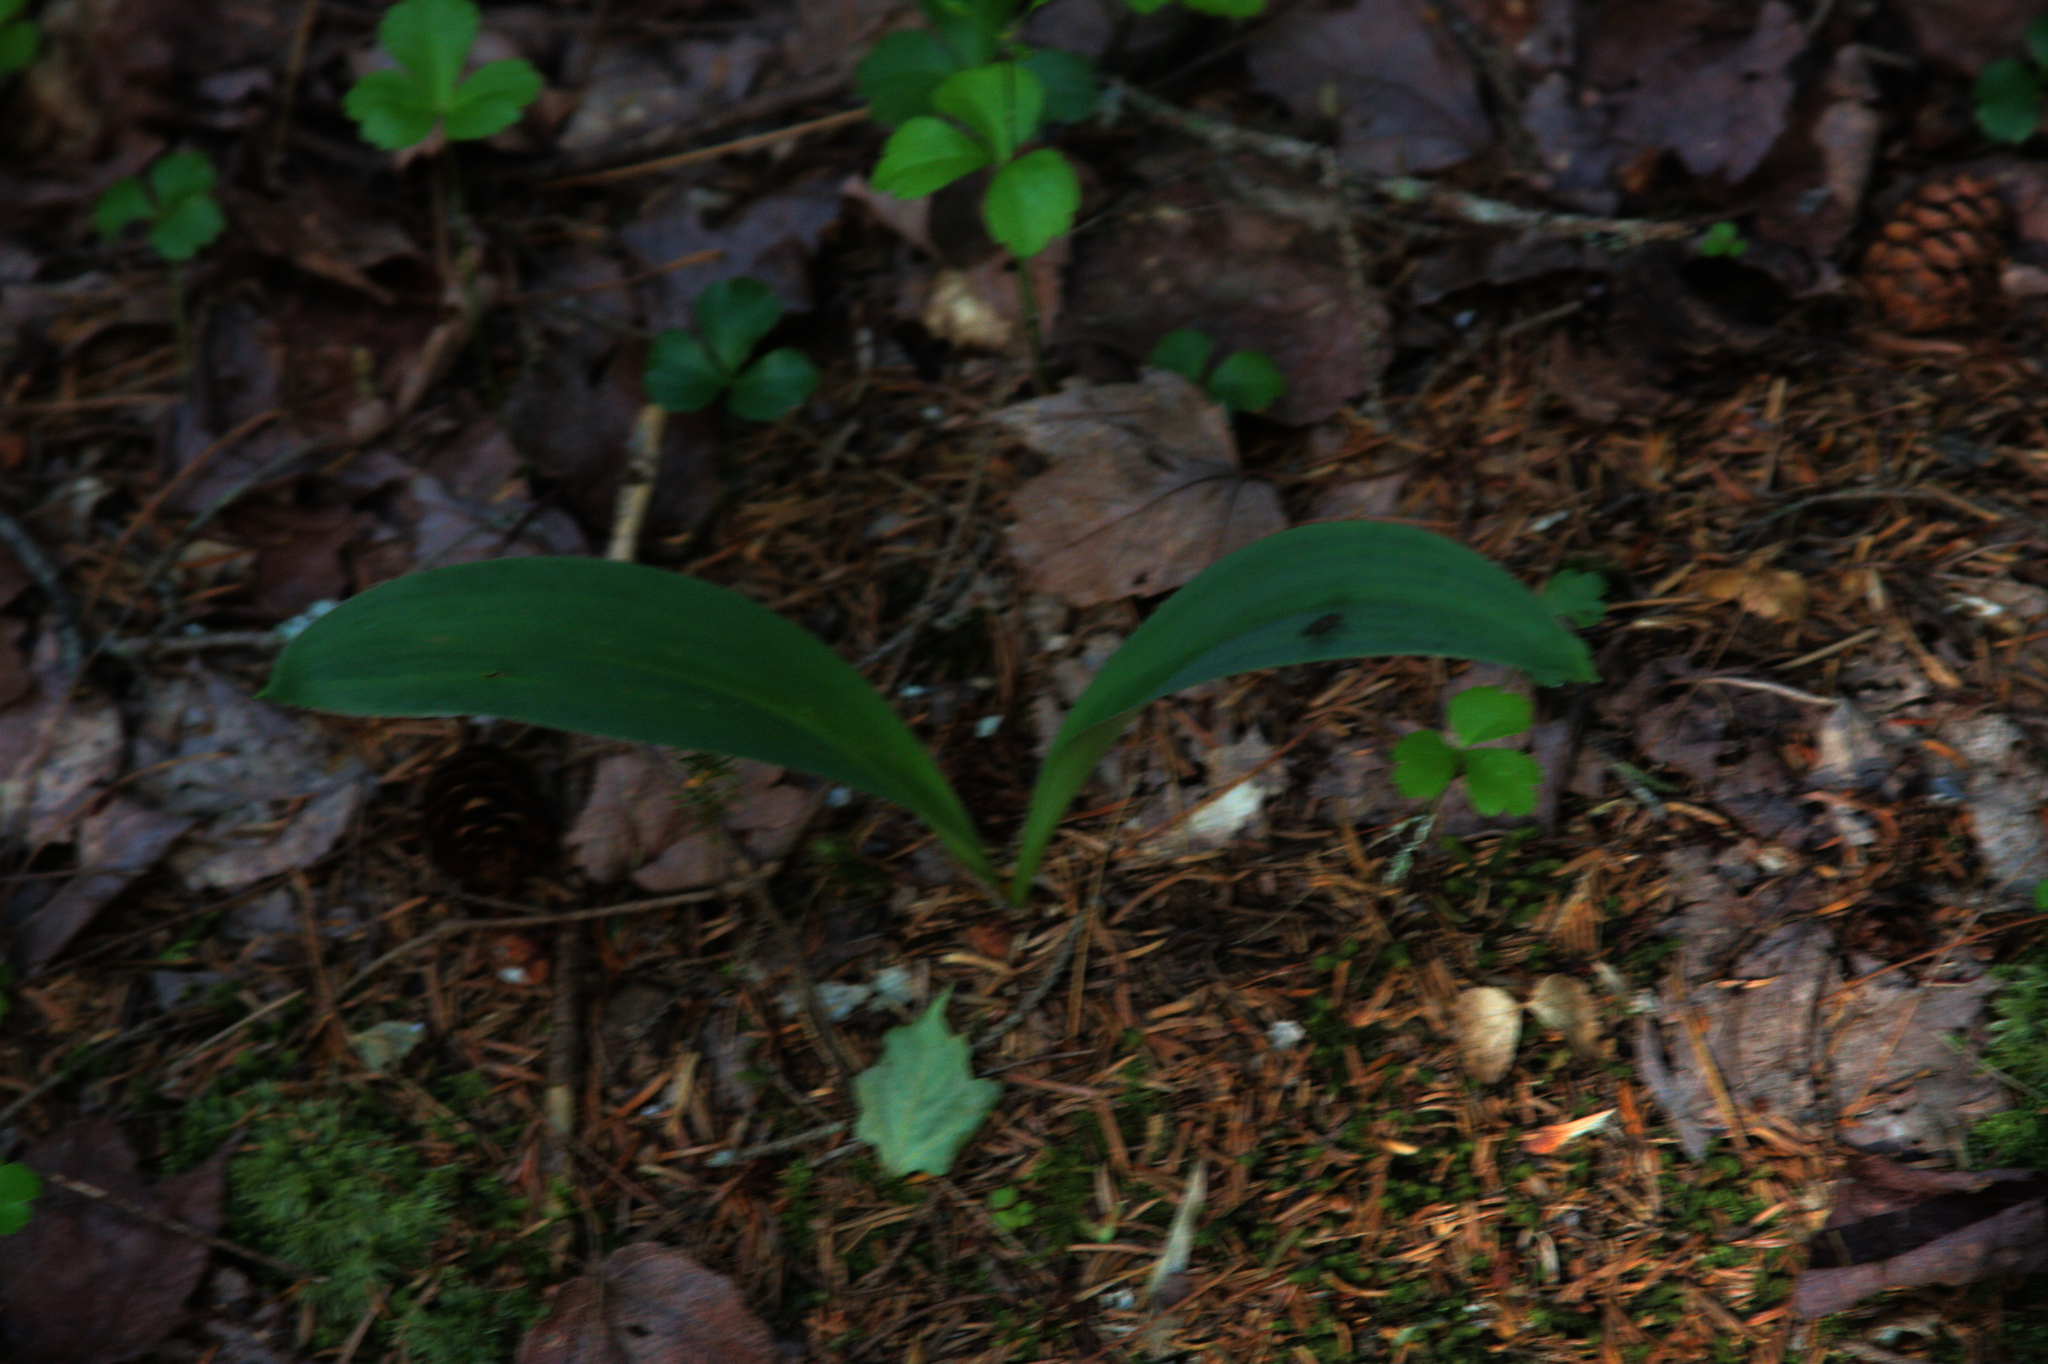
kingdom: Plantae
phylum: Tracheophyta
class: Liliopsida
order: Liliales
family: Liliaceae
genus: Clintonia
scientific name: Clintonia borealis
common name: Yellow clintonia
